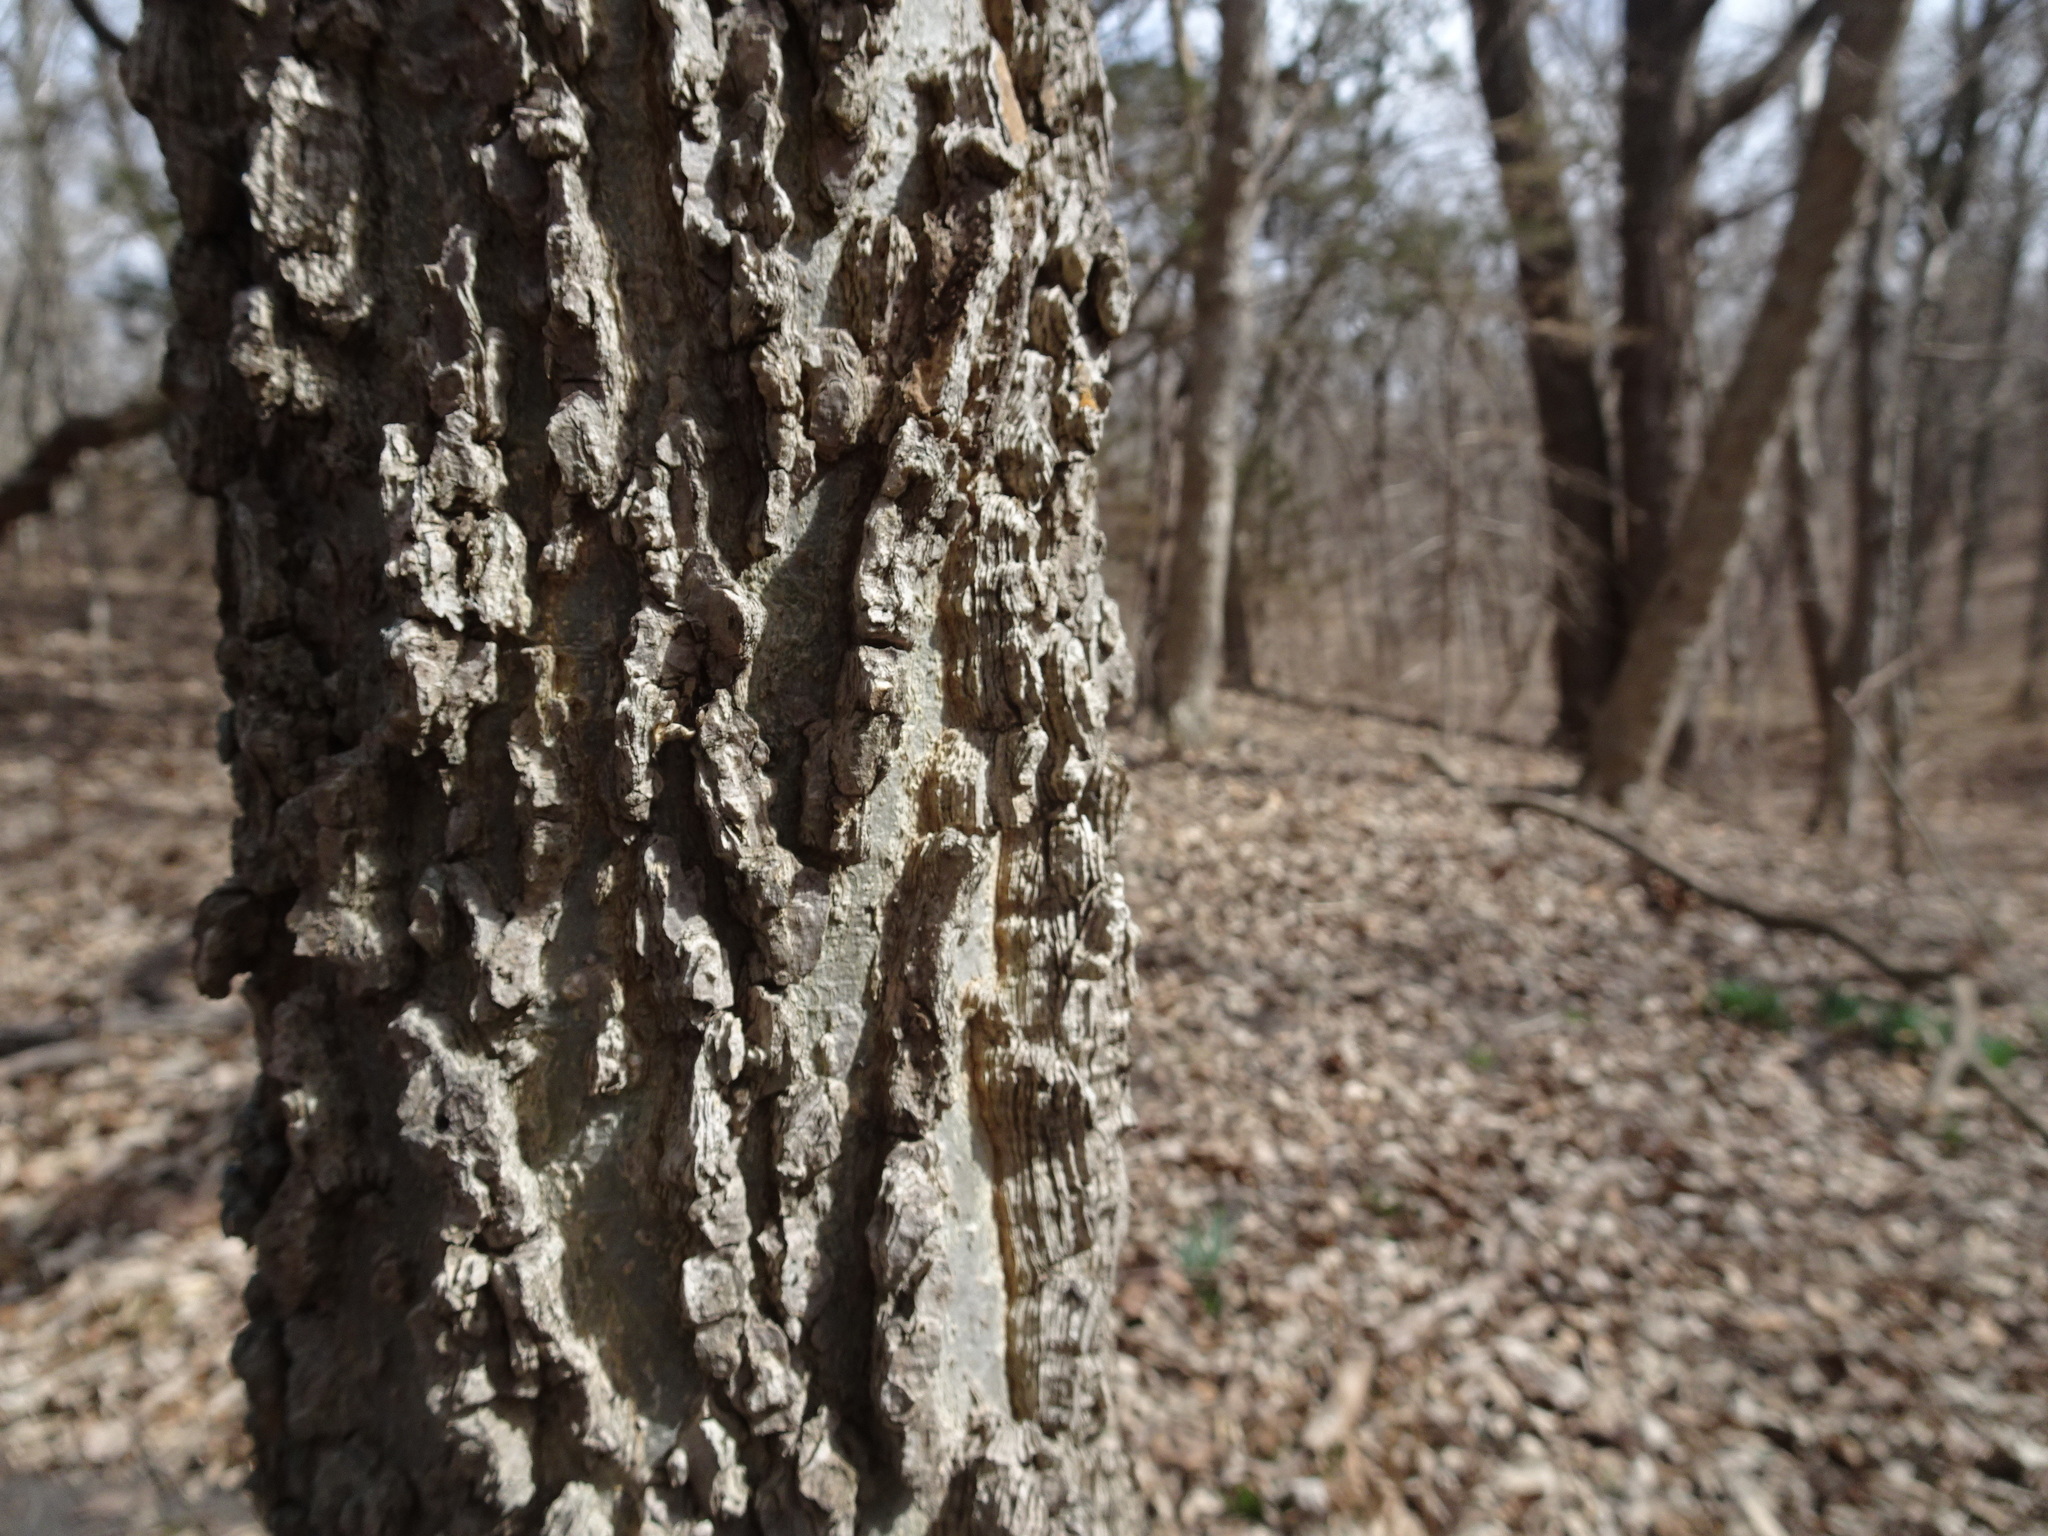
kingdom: Plantae
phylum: Tracheophyta
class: Magnoliopsida
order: Rosales
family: Cannabaceae
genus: Celtis
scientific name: Celtis occidentalis
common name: Common hackberry
